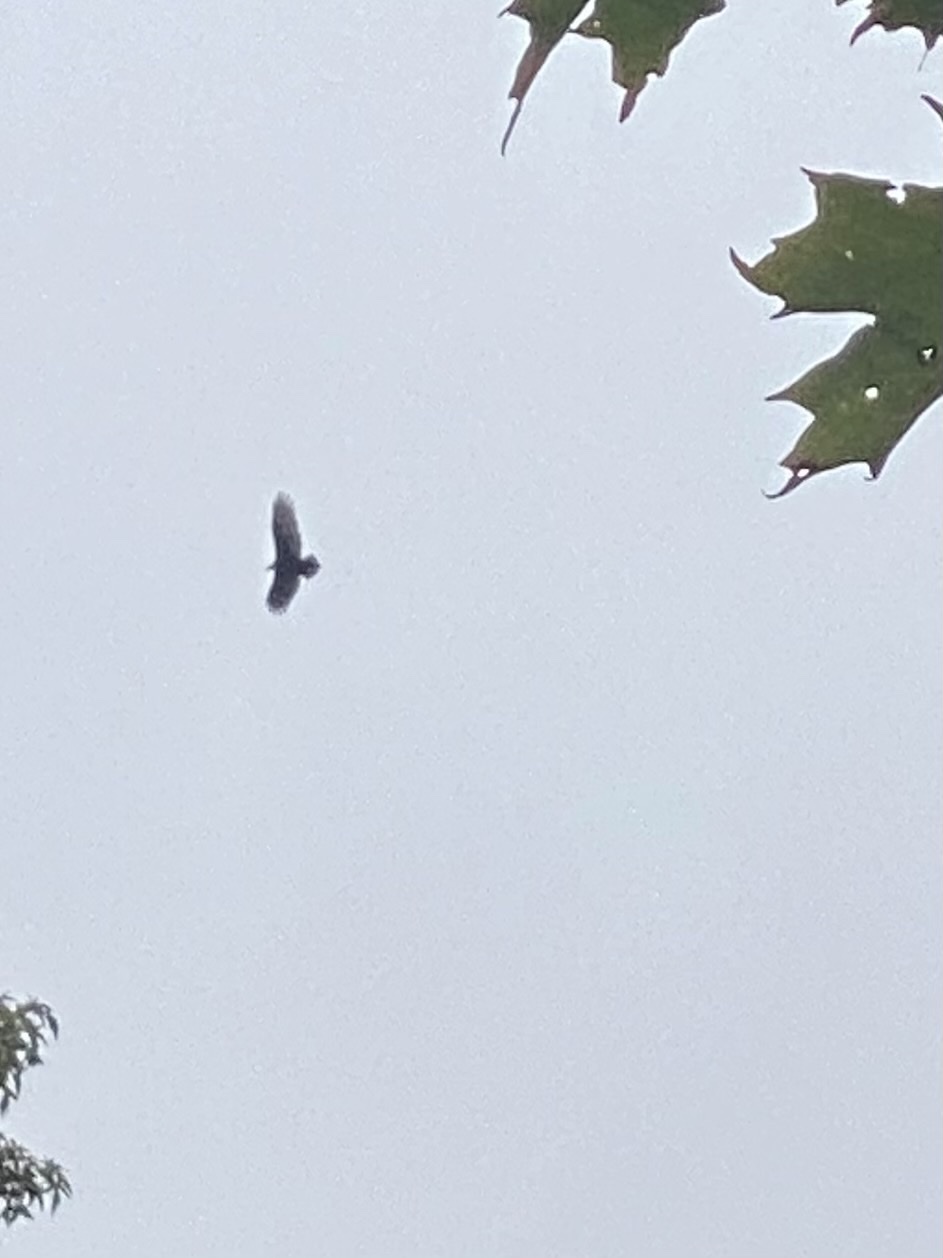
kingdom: Animalia
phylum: Chordata
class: Aves
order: Accipitriformes
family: Cathartidae
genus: Cathartes
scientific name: Cathartes aura
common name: Turkey vulture
